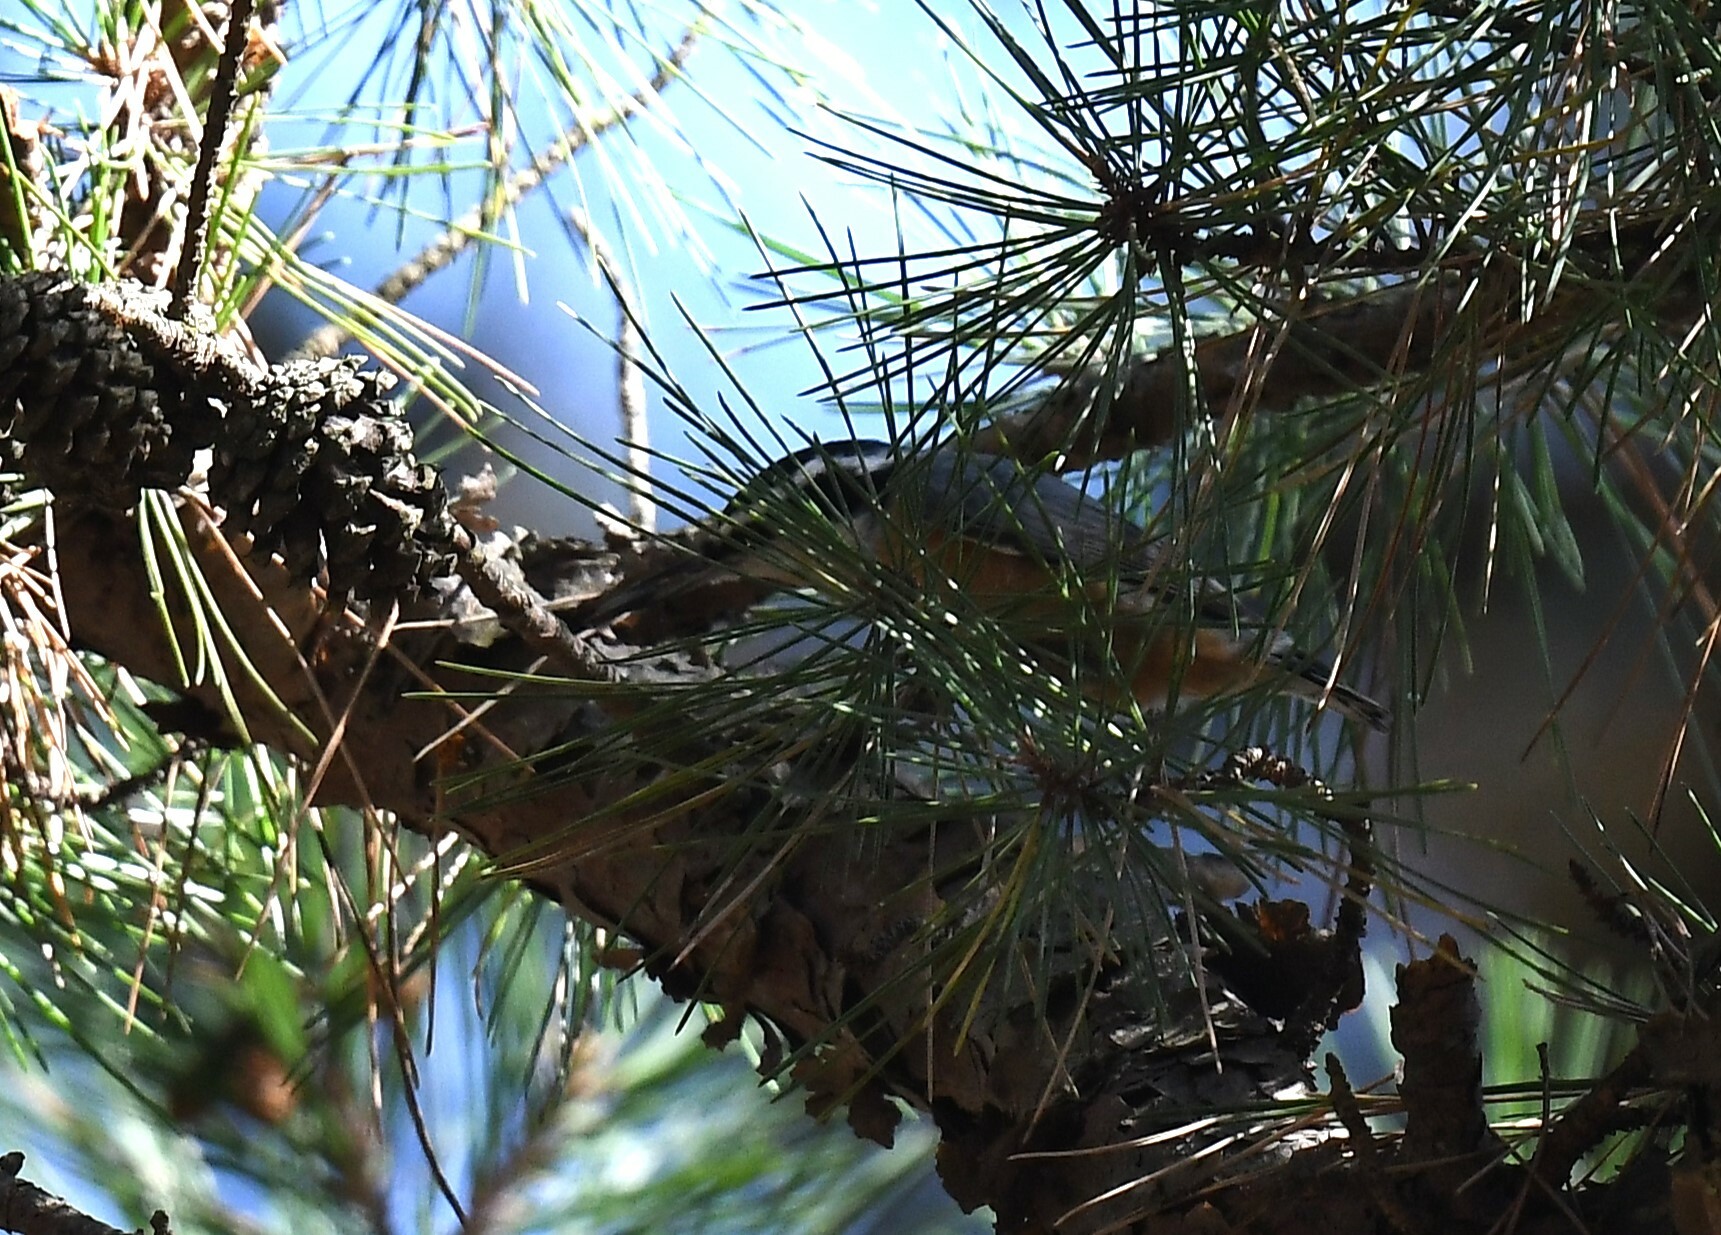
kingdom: Animalia
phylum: Chordata
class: Aves
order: Passeriformes
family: Sittidae
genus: Sitta
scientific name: Sitta canadensis
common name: Red-breasted nuthatch
